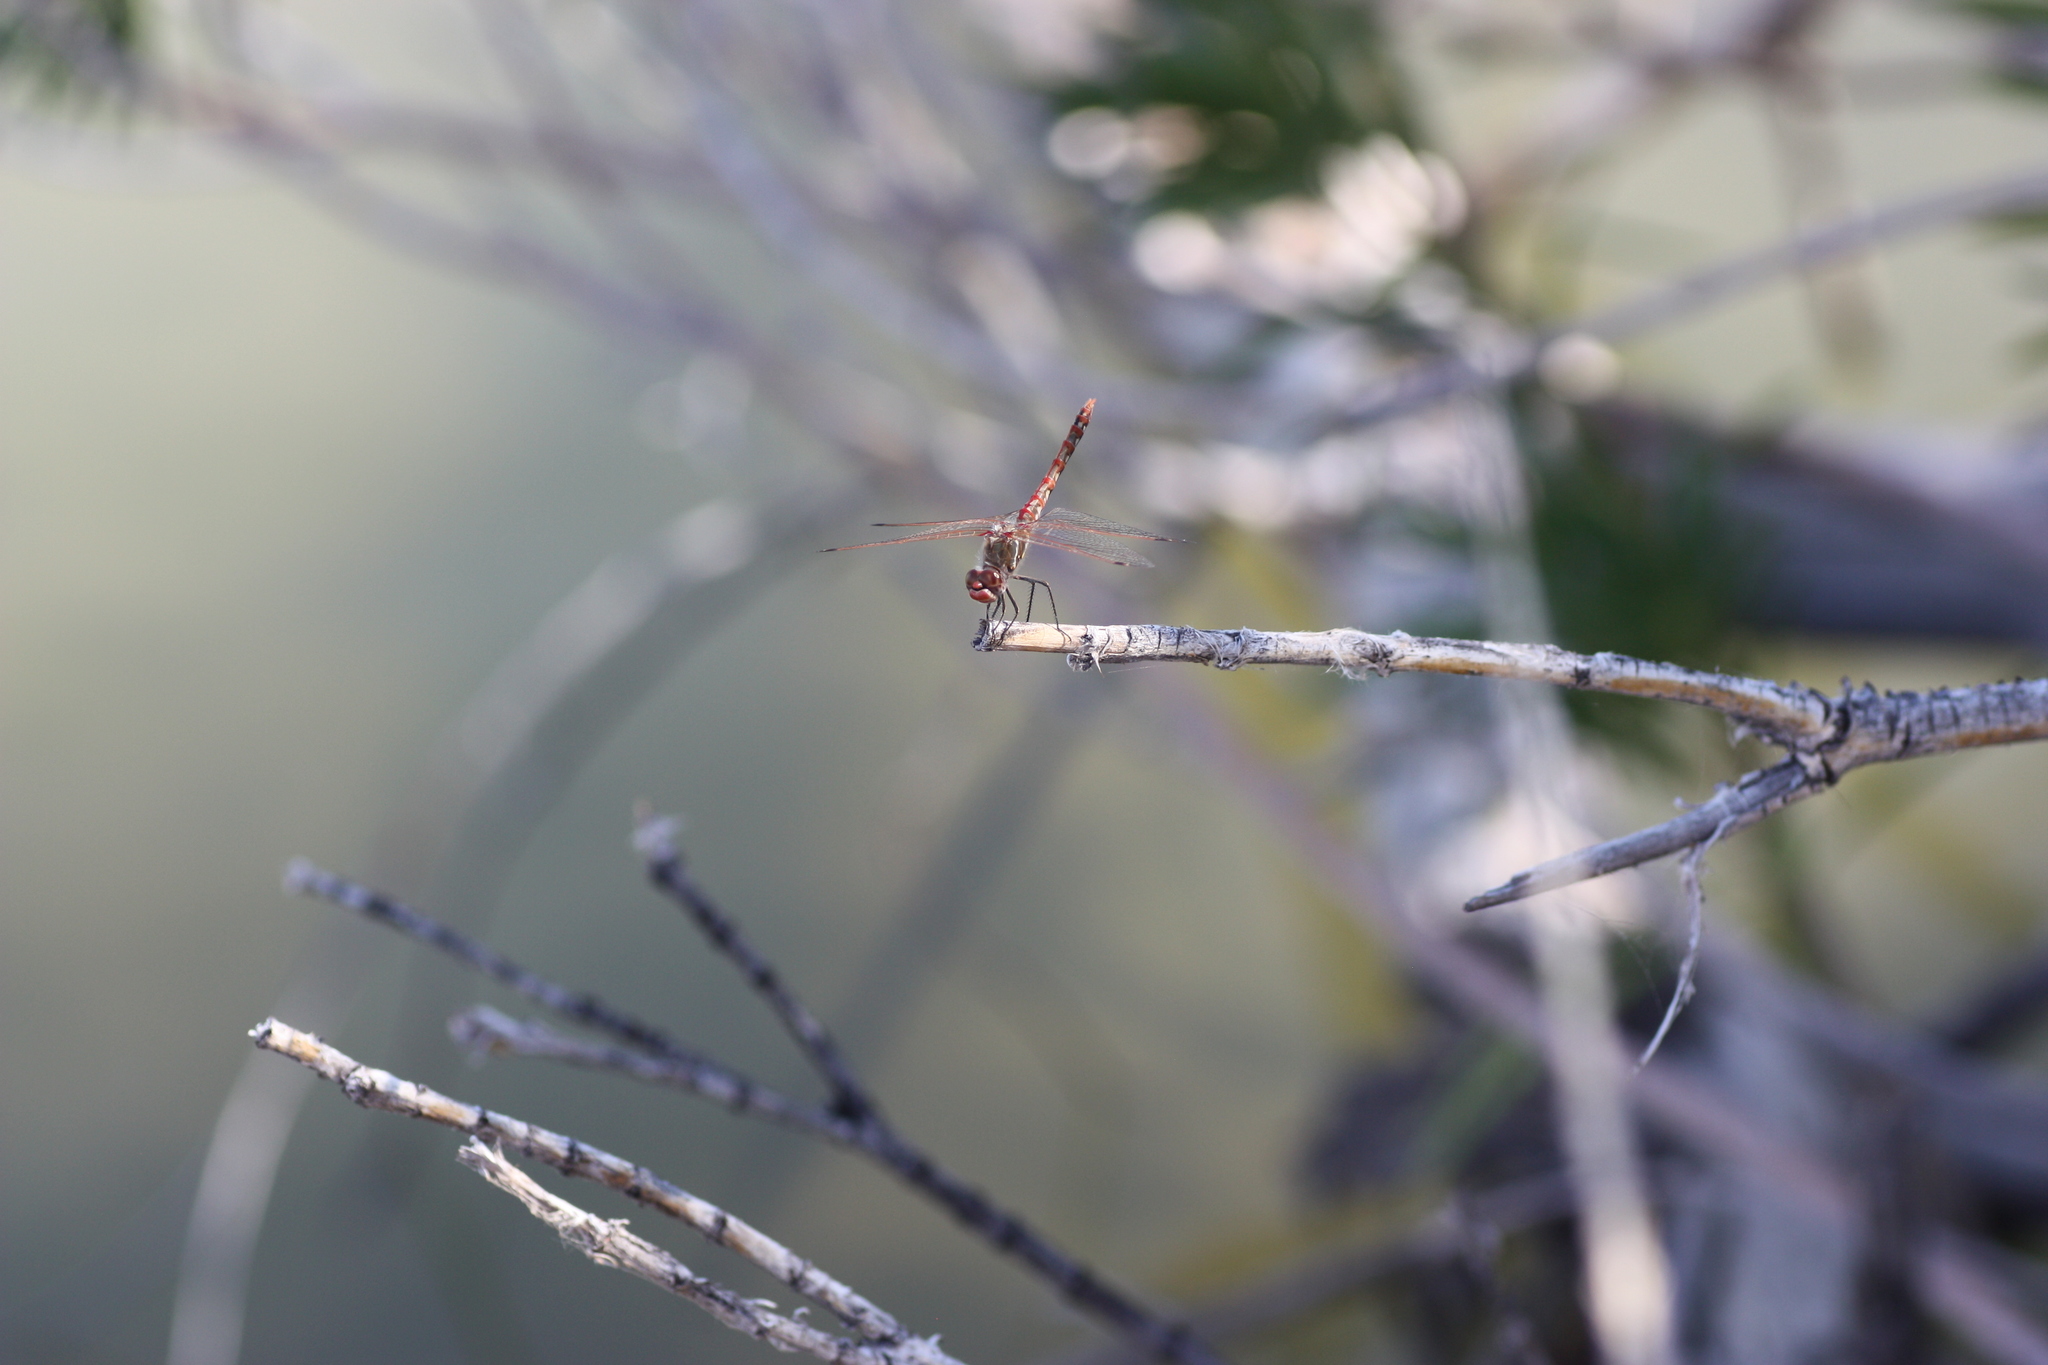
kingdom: Animalia
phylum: Arthropoda
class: Insecta
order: Odonata
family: Libellulidae
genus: Sympetrum
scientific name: Sympetrum corruptum
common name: Variegated meadowhawk
